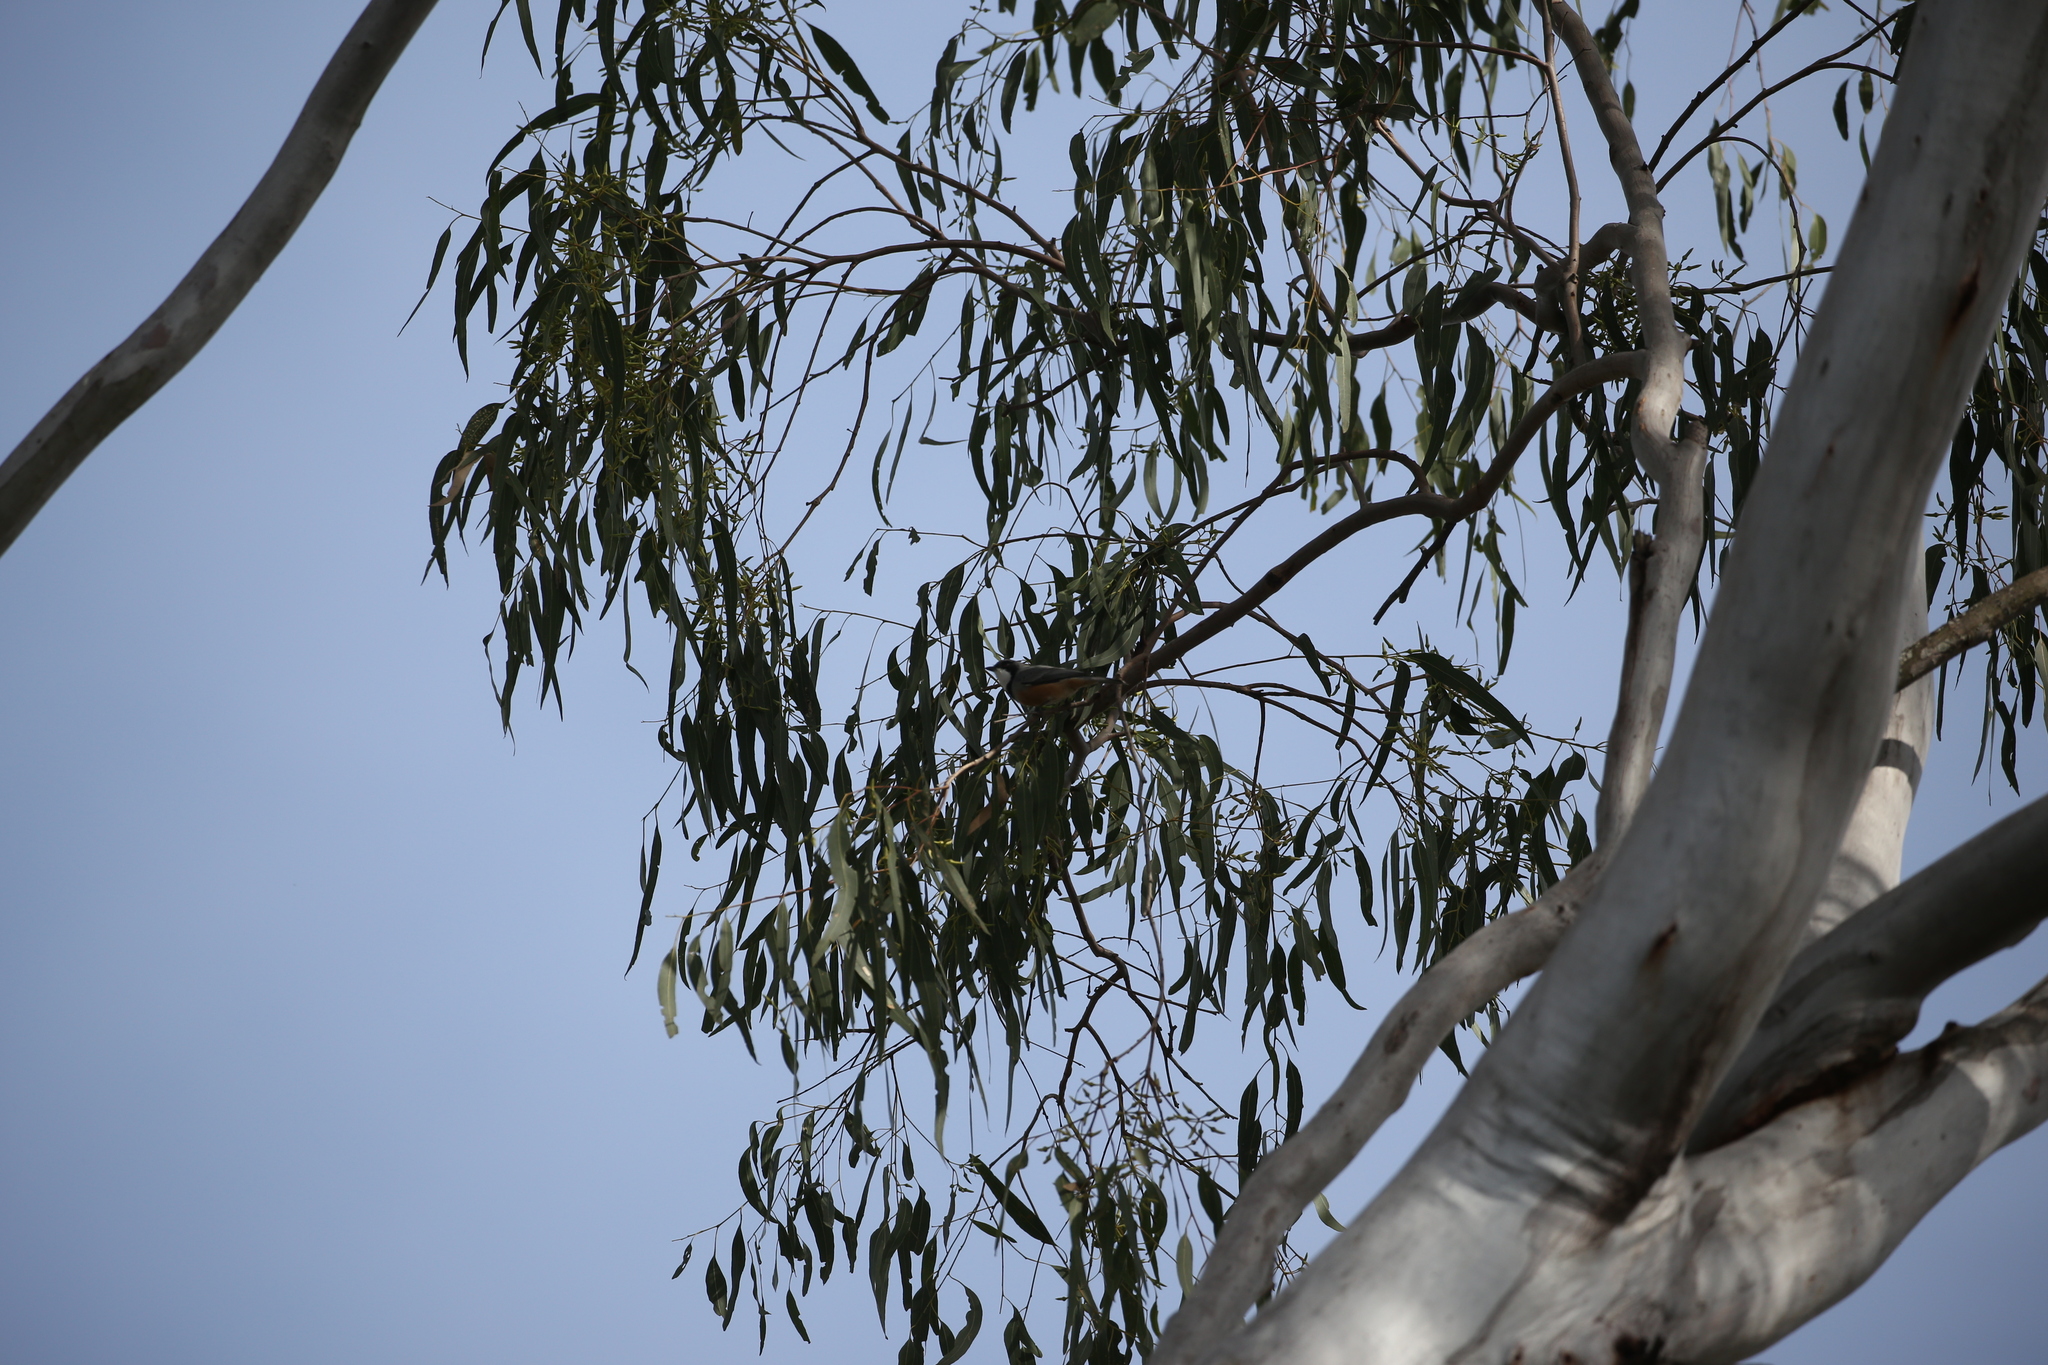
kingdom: Animalia
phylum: Chordata
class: Aves
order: Passeriformes
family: Pachycephalidae
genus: Pachycephala
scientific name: Pachycephala rufiventris
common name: Rufous whistler
